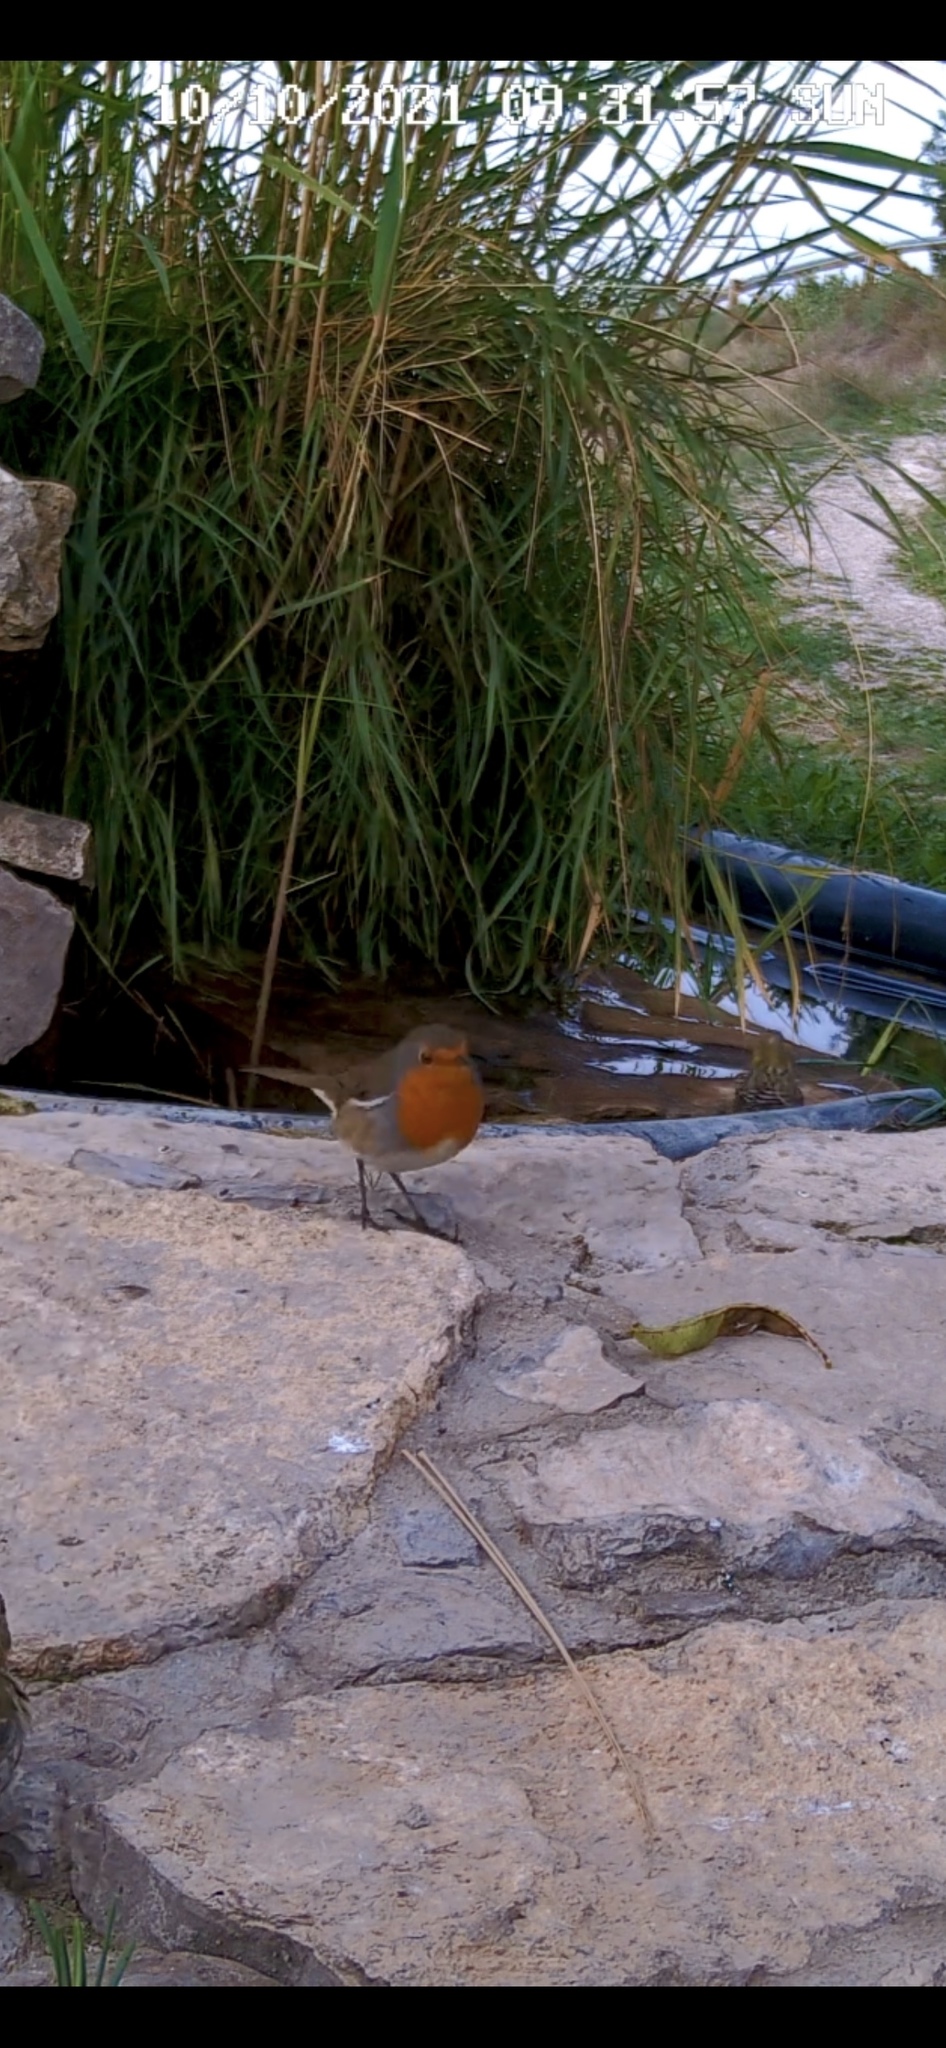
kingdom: Animalia
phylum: Chordata
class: Aves
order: Passeriformes
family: Muscicapidae
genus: Erithacus
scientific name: Erithacus rubecula
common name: European robin
